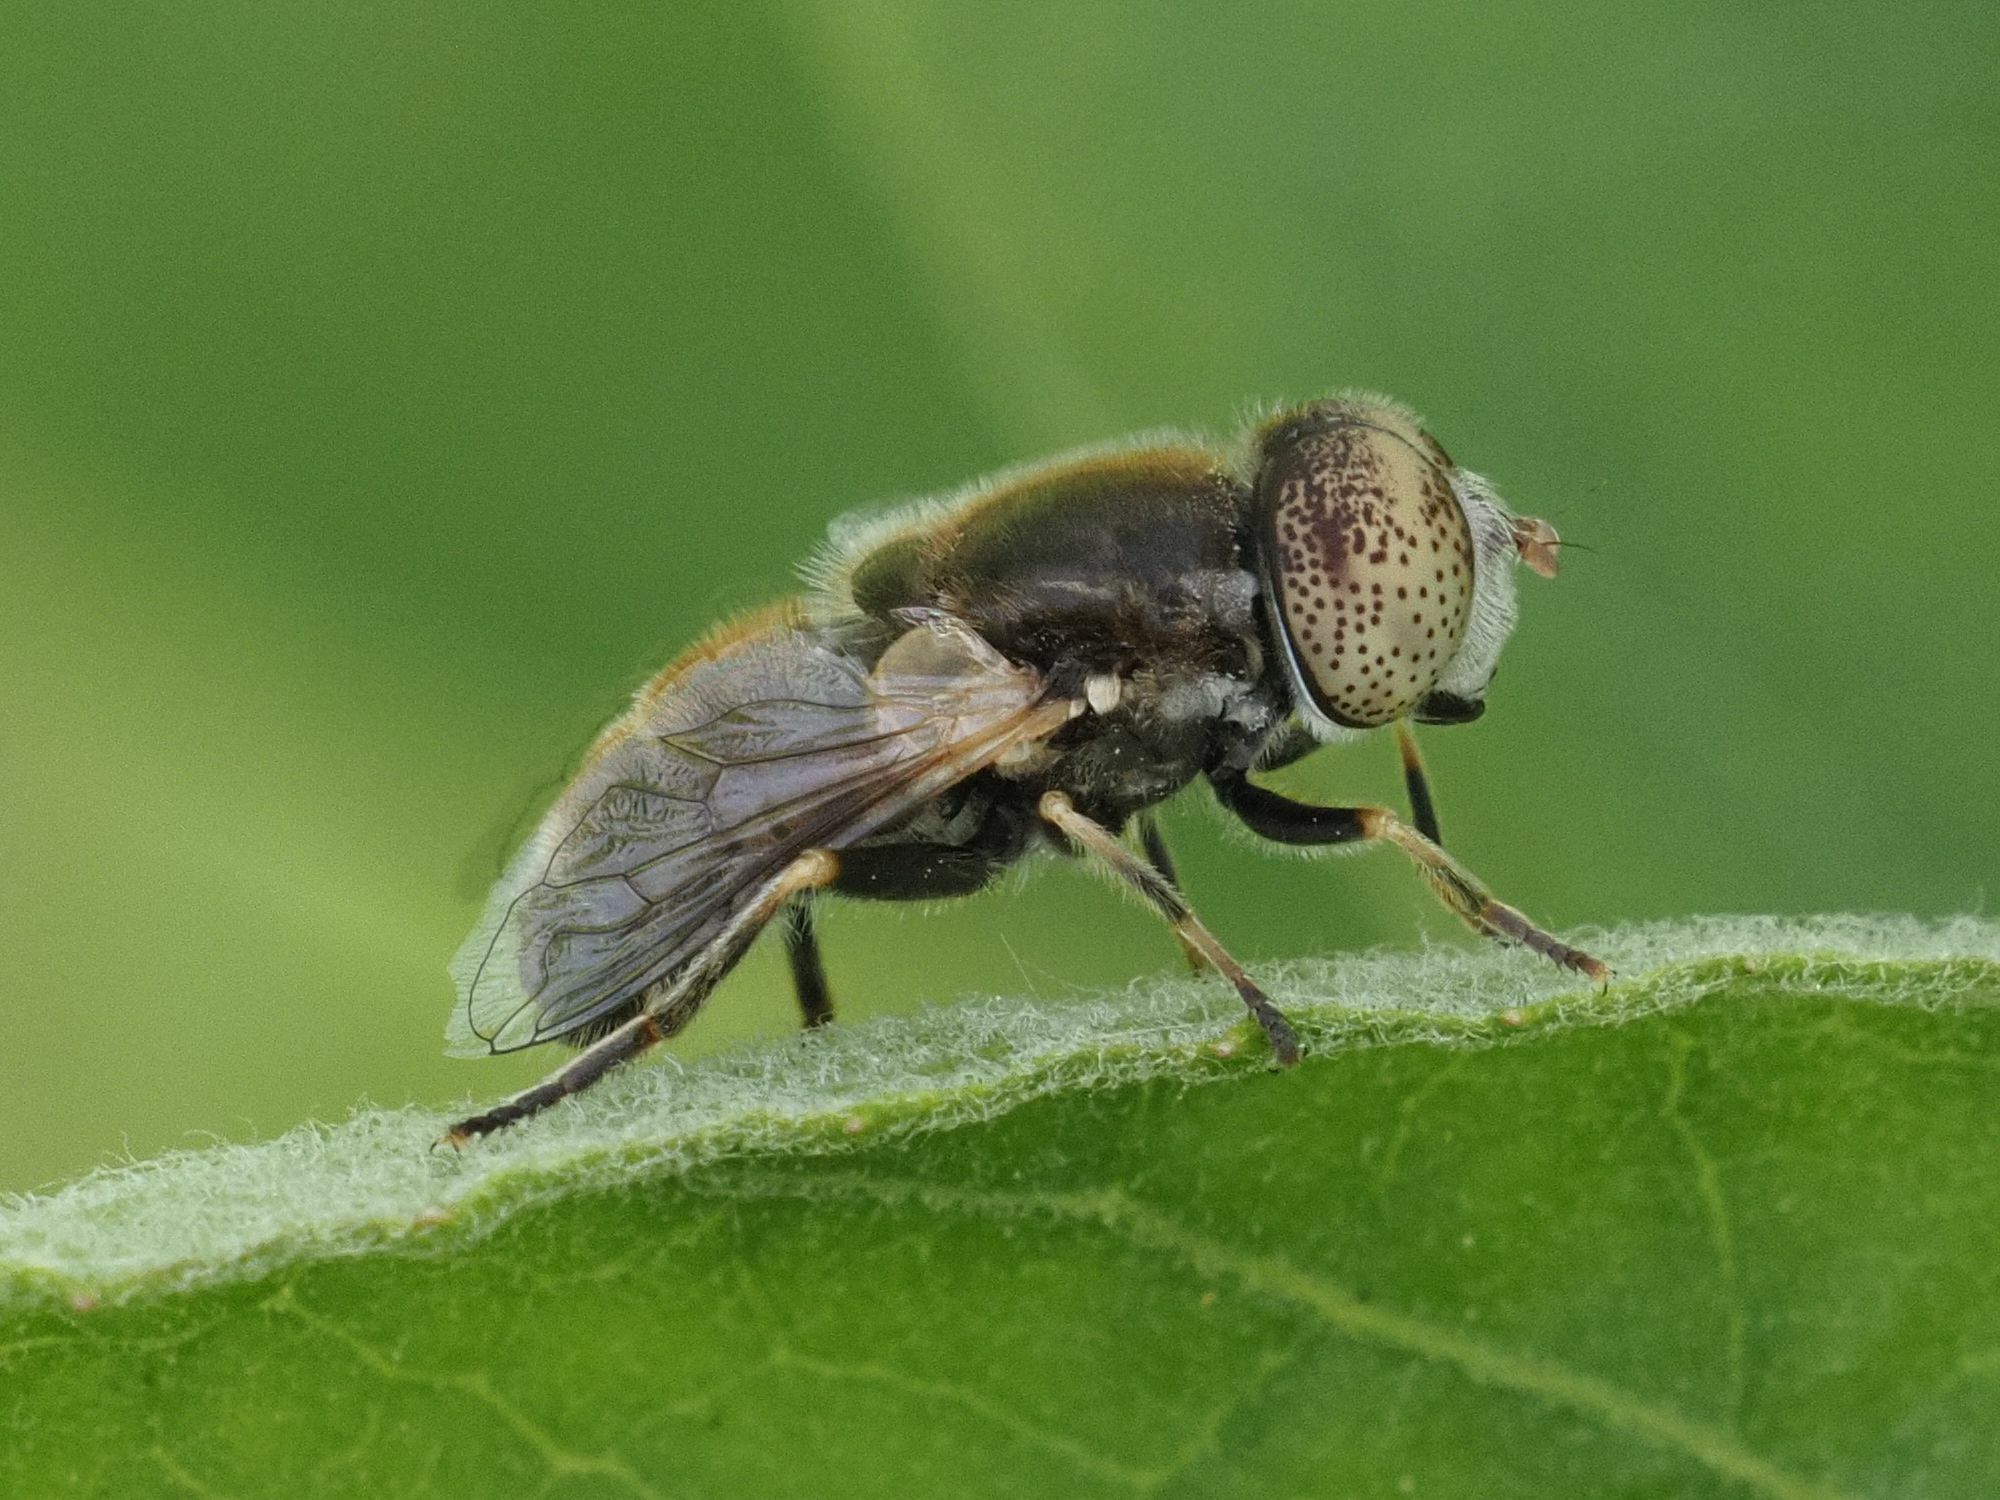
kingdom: Animalia
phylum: Arthropoda
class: Insecta
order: Diptera
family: Syrphidae
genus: Eristalinus
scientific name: Eristalinus aeneus
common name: Syrphid fly
